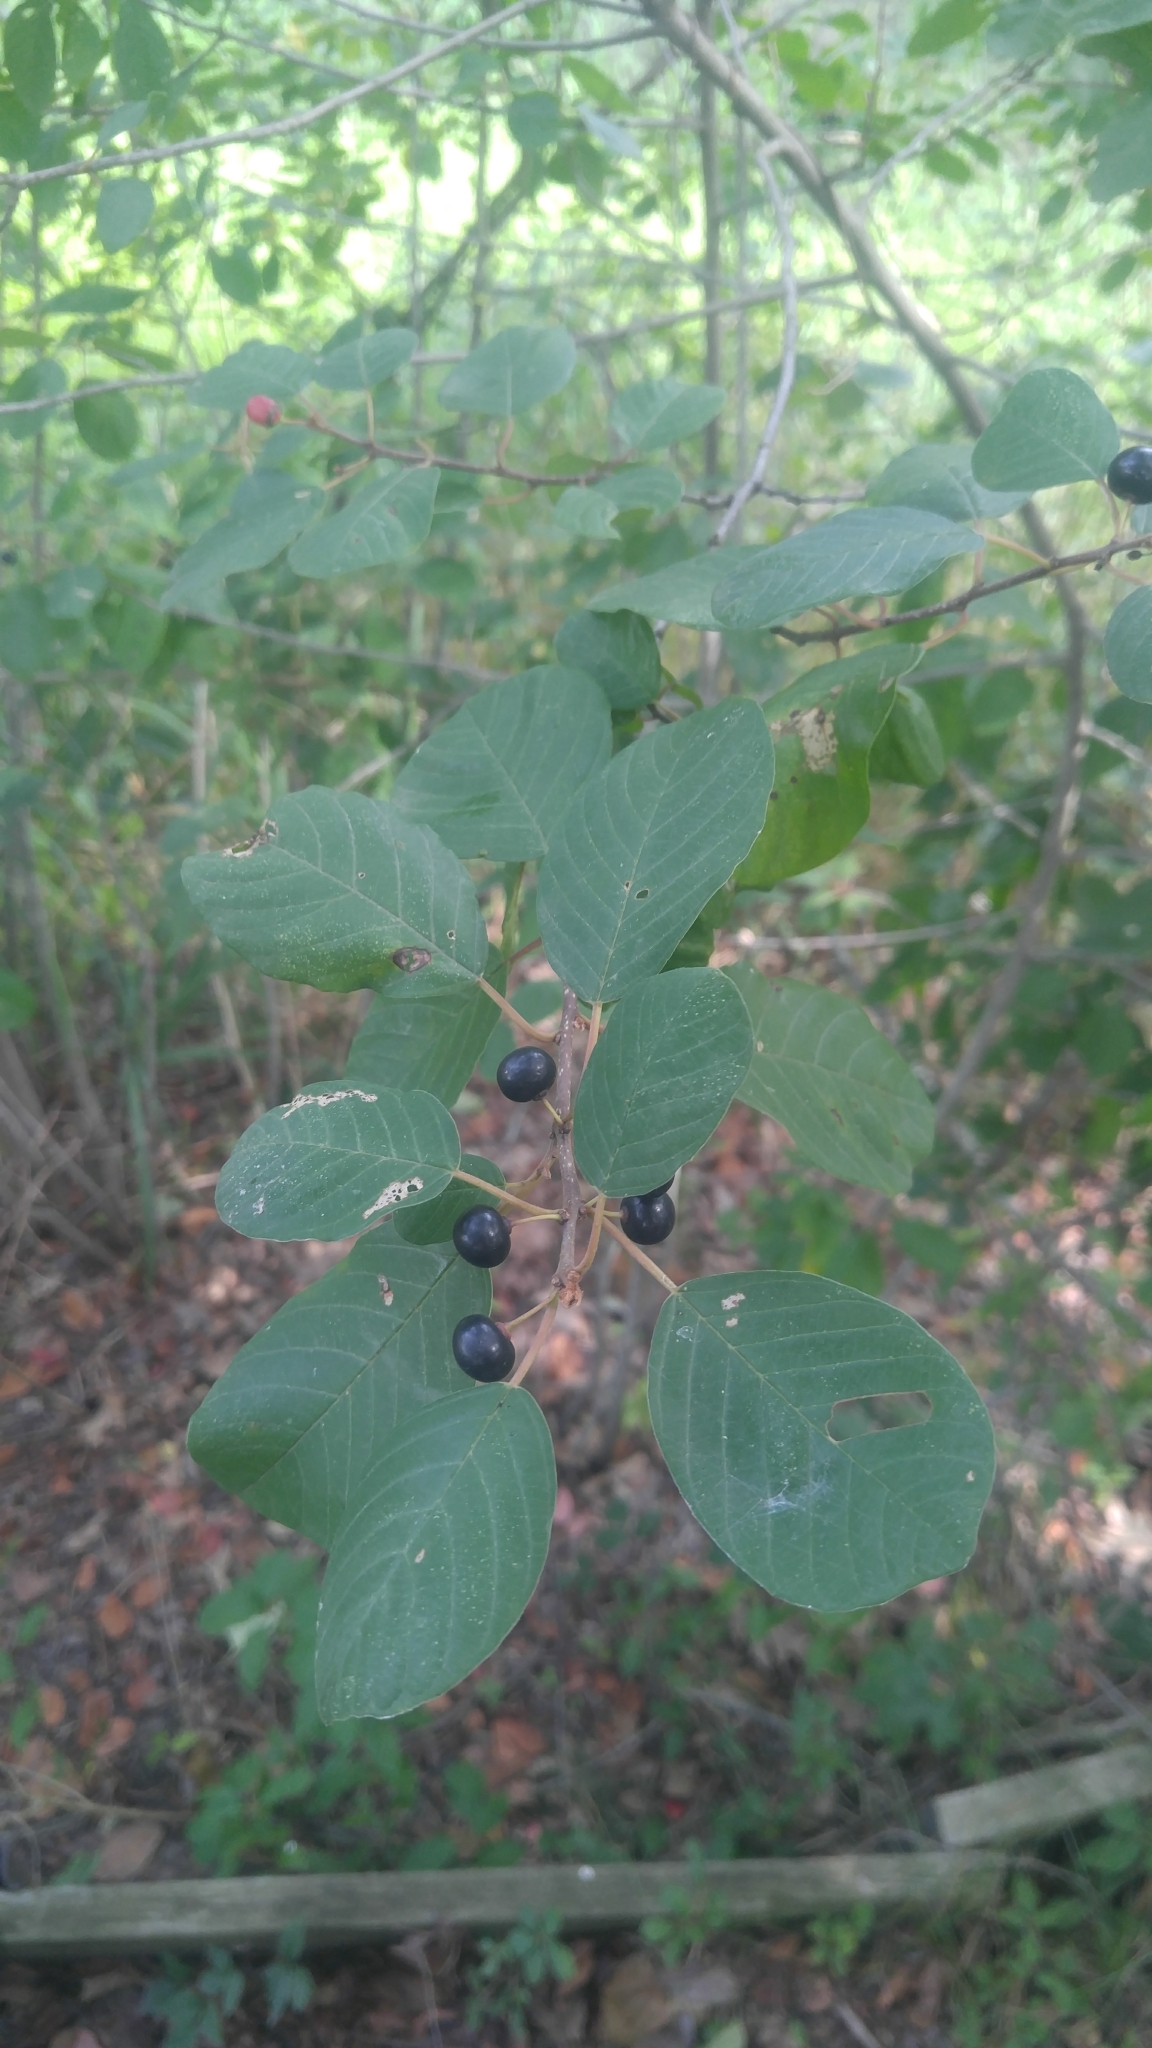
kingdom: Plantae
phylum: Tracheophyta
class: Magnoliopsida
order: Rosales
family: Rhamnaceae
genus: Frangula
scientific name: Frangula alnus
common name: Alder buckthorn
